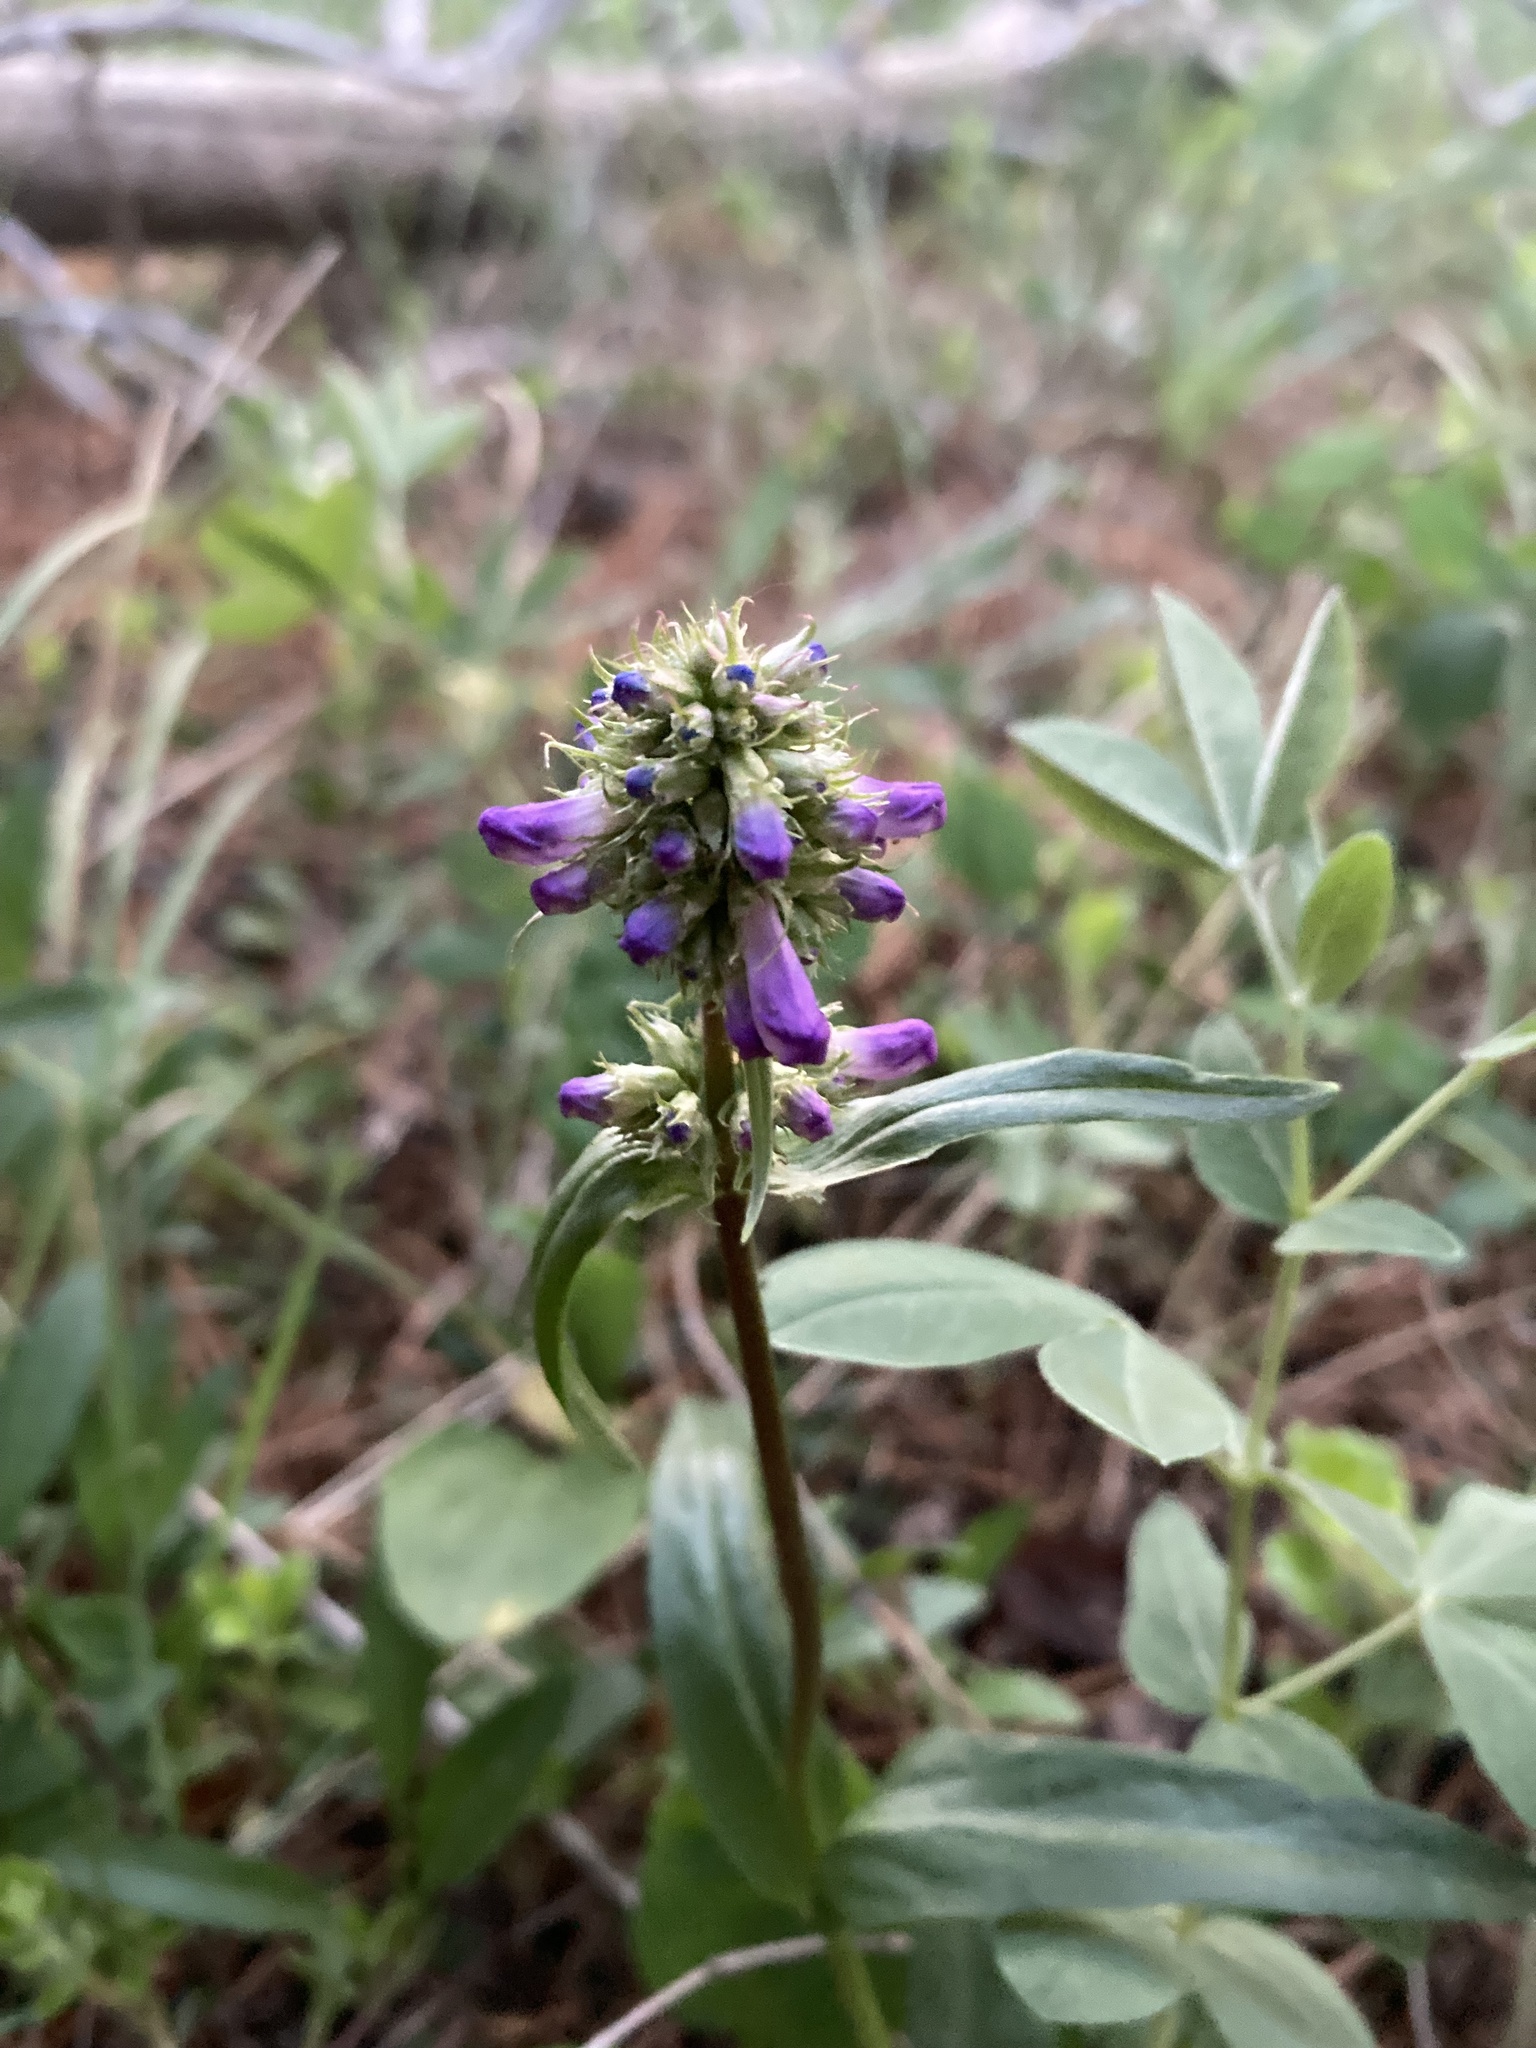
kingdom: Plantae
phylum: Tracheophyta
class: Magnoliopsida
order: Lamiales
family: Plantaginaceae
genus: Penstemon
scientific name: Penstemon procerus
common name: Small-flower penstemon
